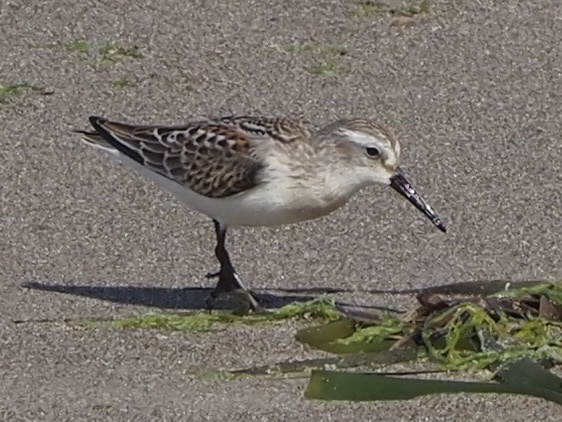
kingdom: Animalia
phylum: Chordata
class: Aves
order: Charadriiformes
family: Scolopacidae
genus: Calidris
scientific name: Calidris mauri
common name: Western sandpiper
